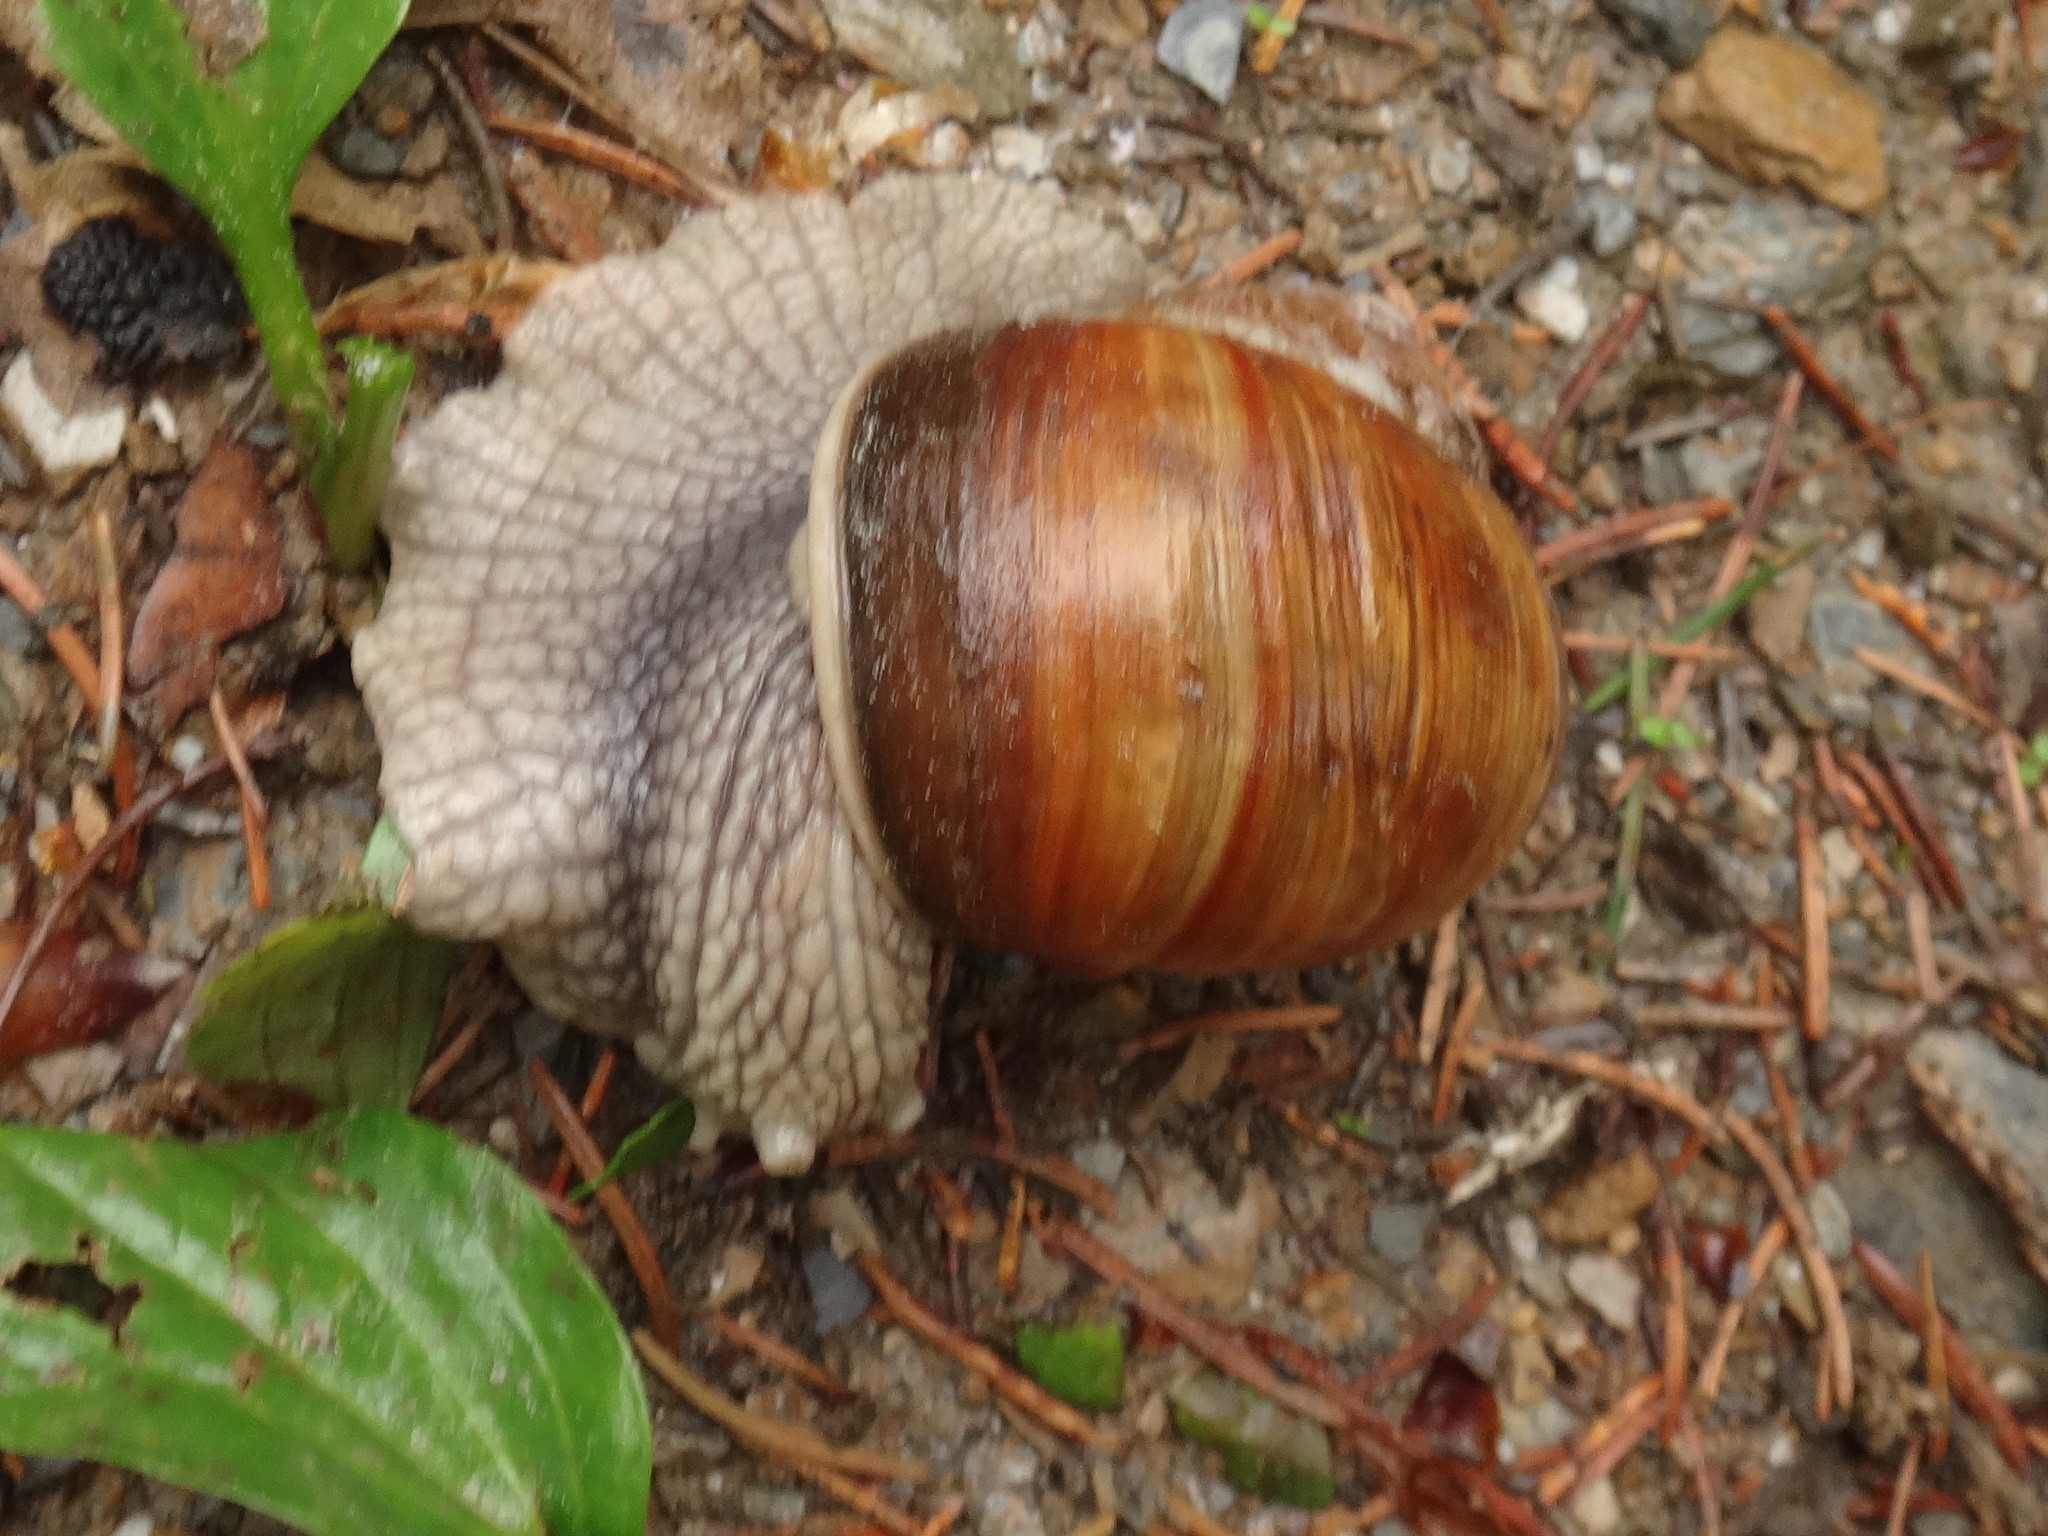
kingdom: Animalia
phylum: Mollusca
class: Gastropoda
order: Stylommatophora
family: Helicidae
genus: Helix
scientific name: Helix pomatia
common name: Roman snail
